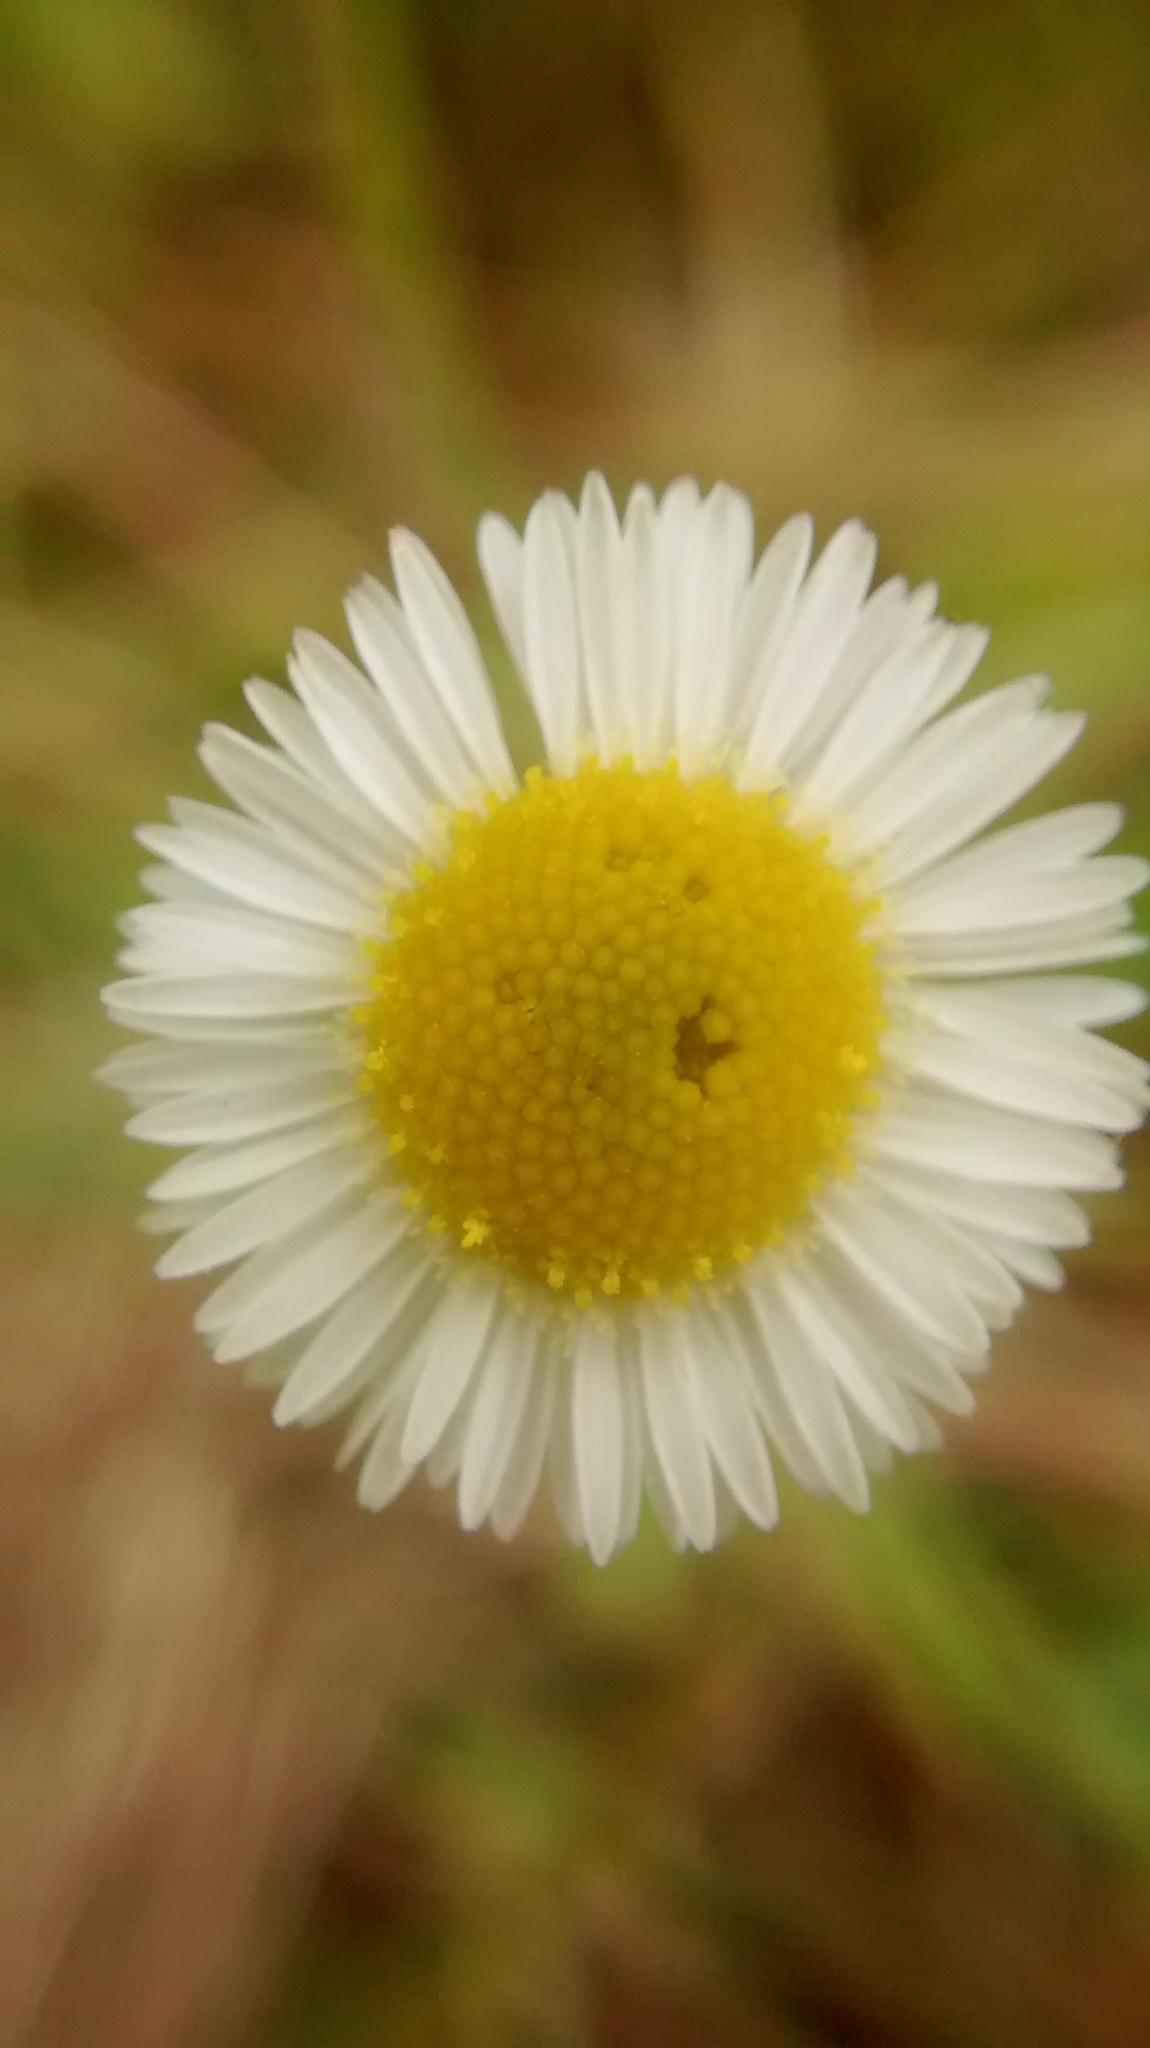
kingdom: Plantae
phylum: Tracheophyta
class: Magnoliopsida
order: Asterales
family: Asteraceae
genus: Erigeron
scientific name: Erigeron strigosus
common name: Common eastern fleabane
